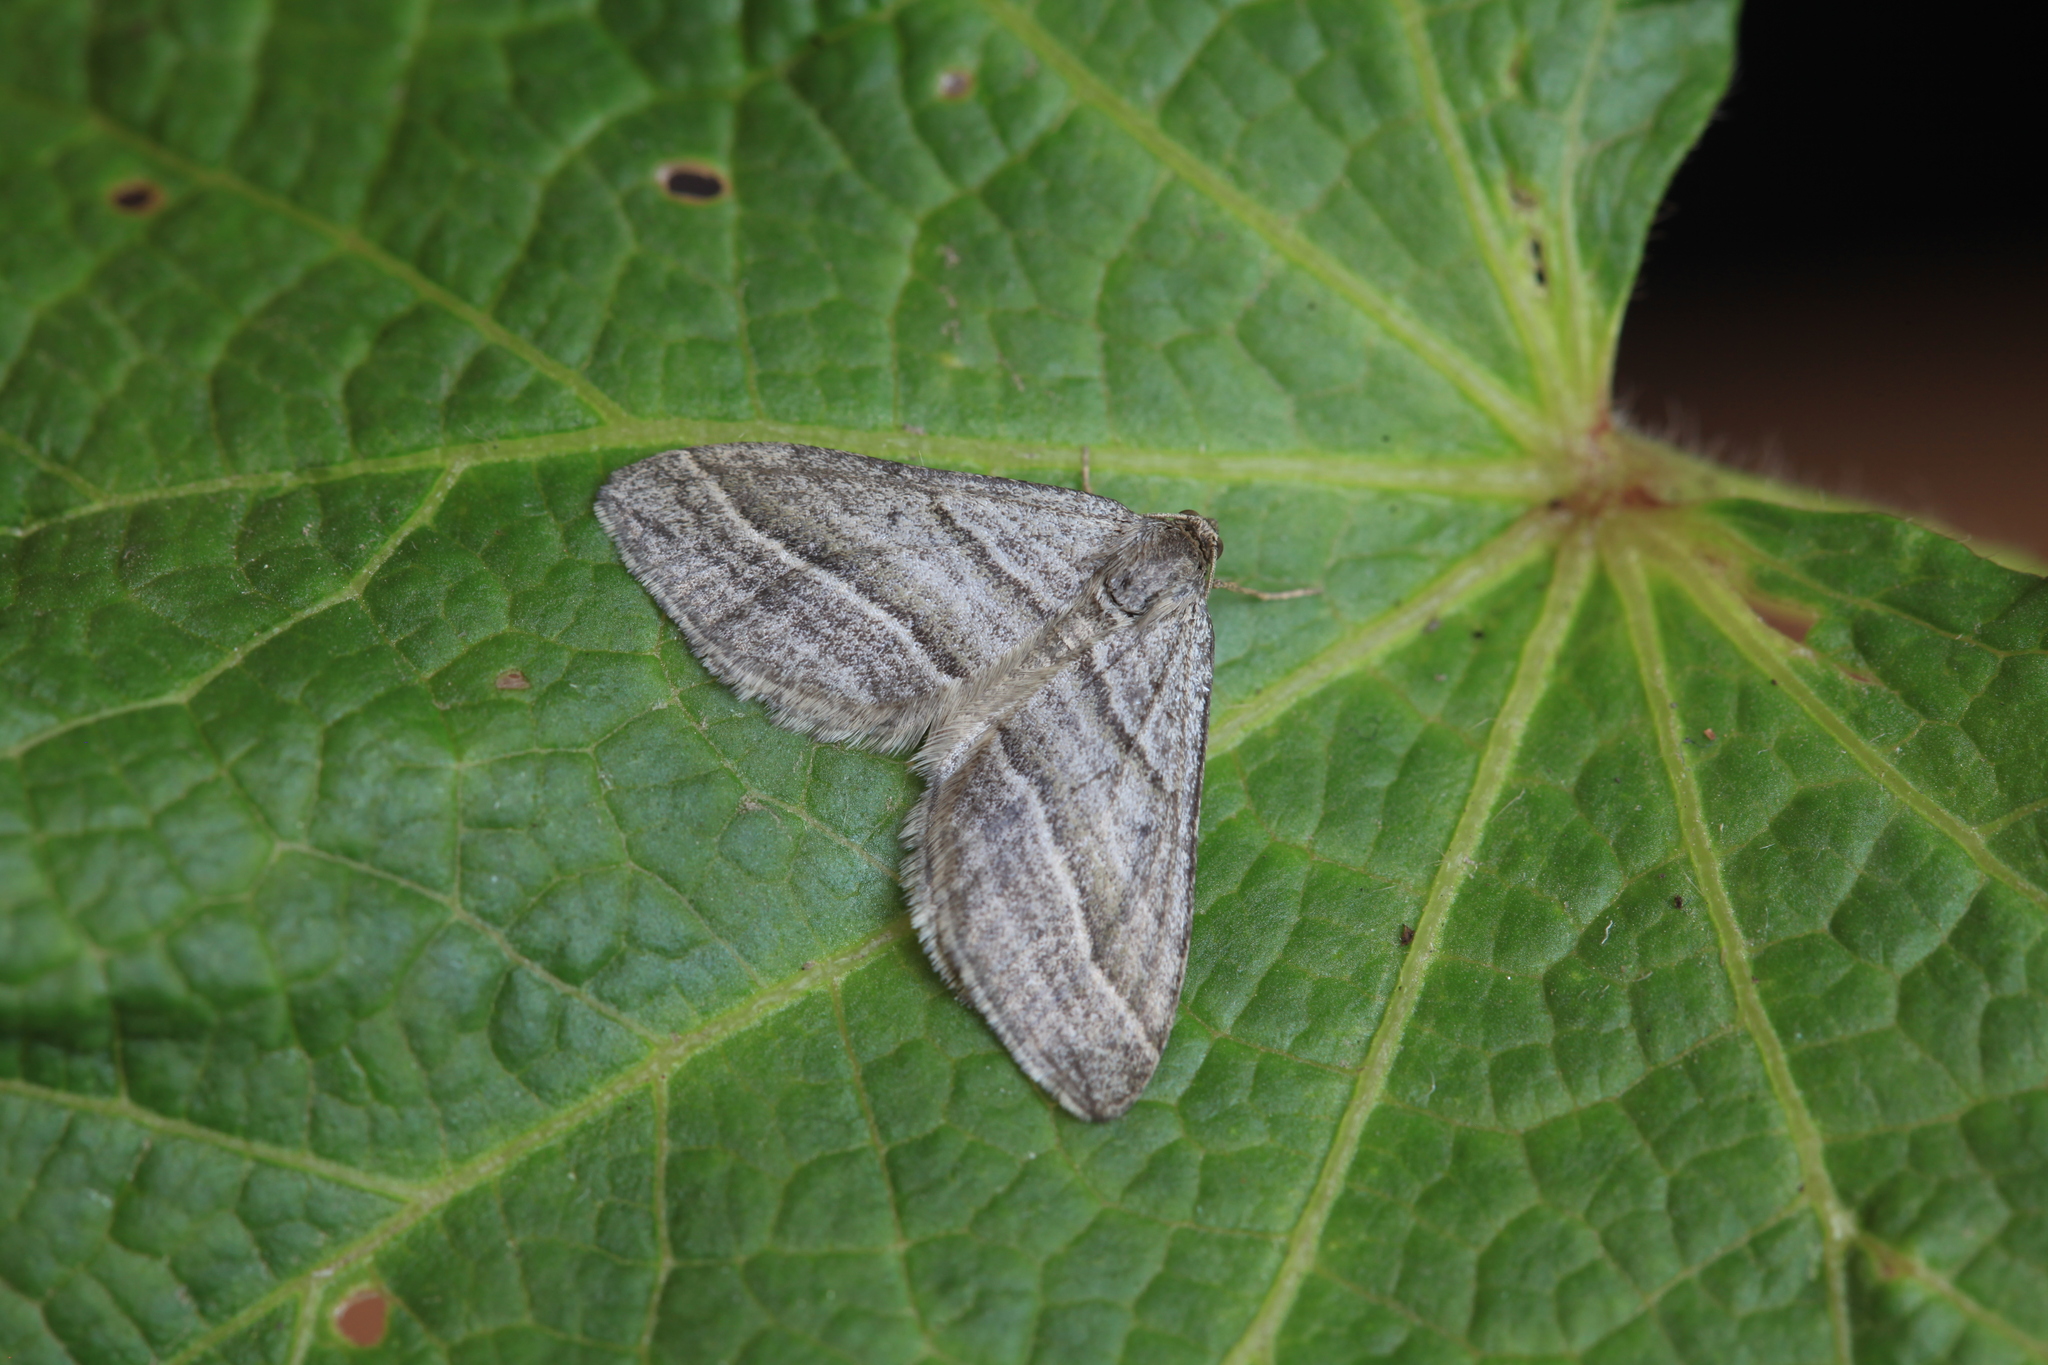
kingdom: Animalia
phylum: Arthropoda
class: Insecta
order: Lepidoptera
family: Geometridae
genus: Phibalapteryx
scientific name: Phibalapteryx virgata
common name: Oblique striped
